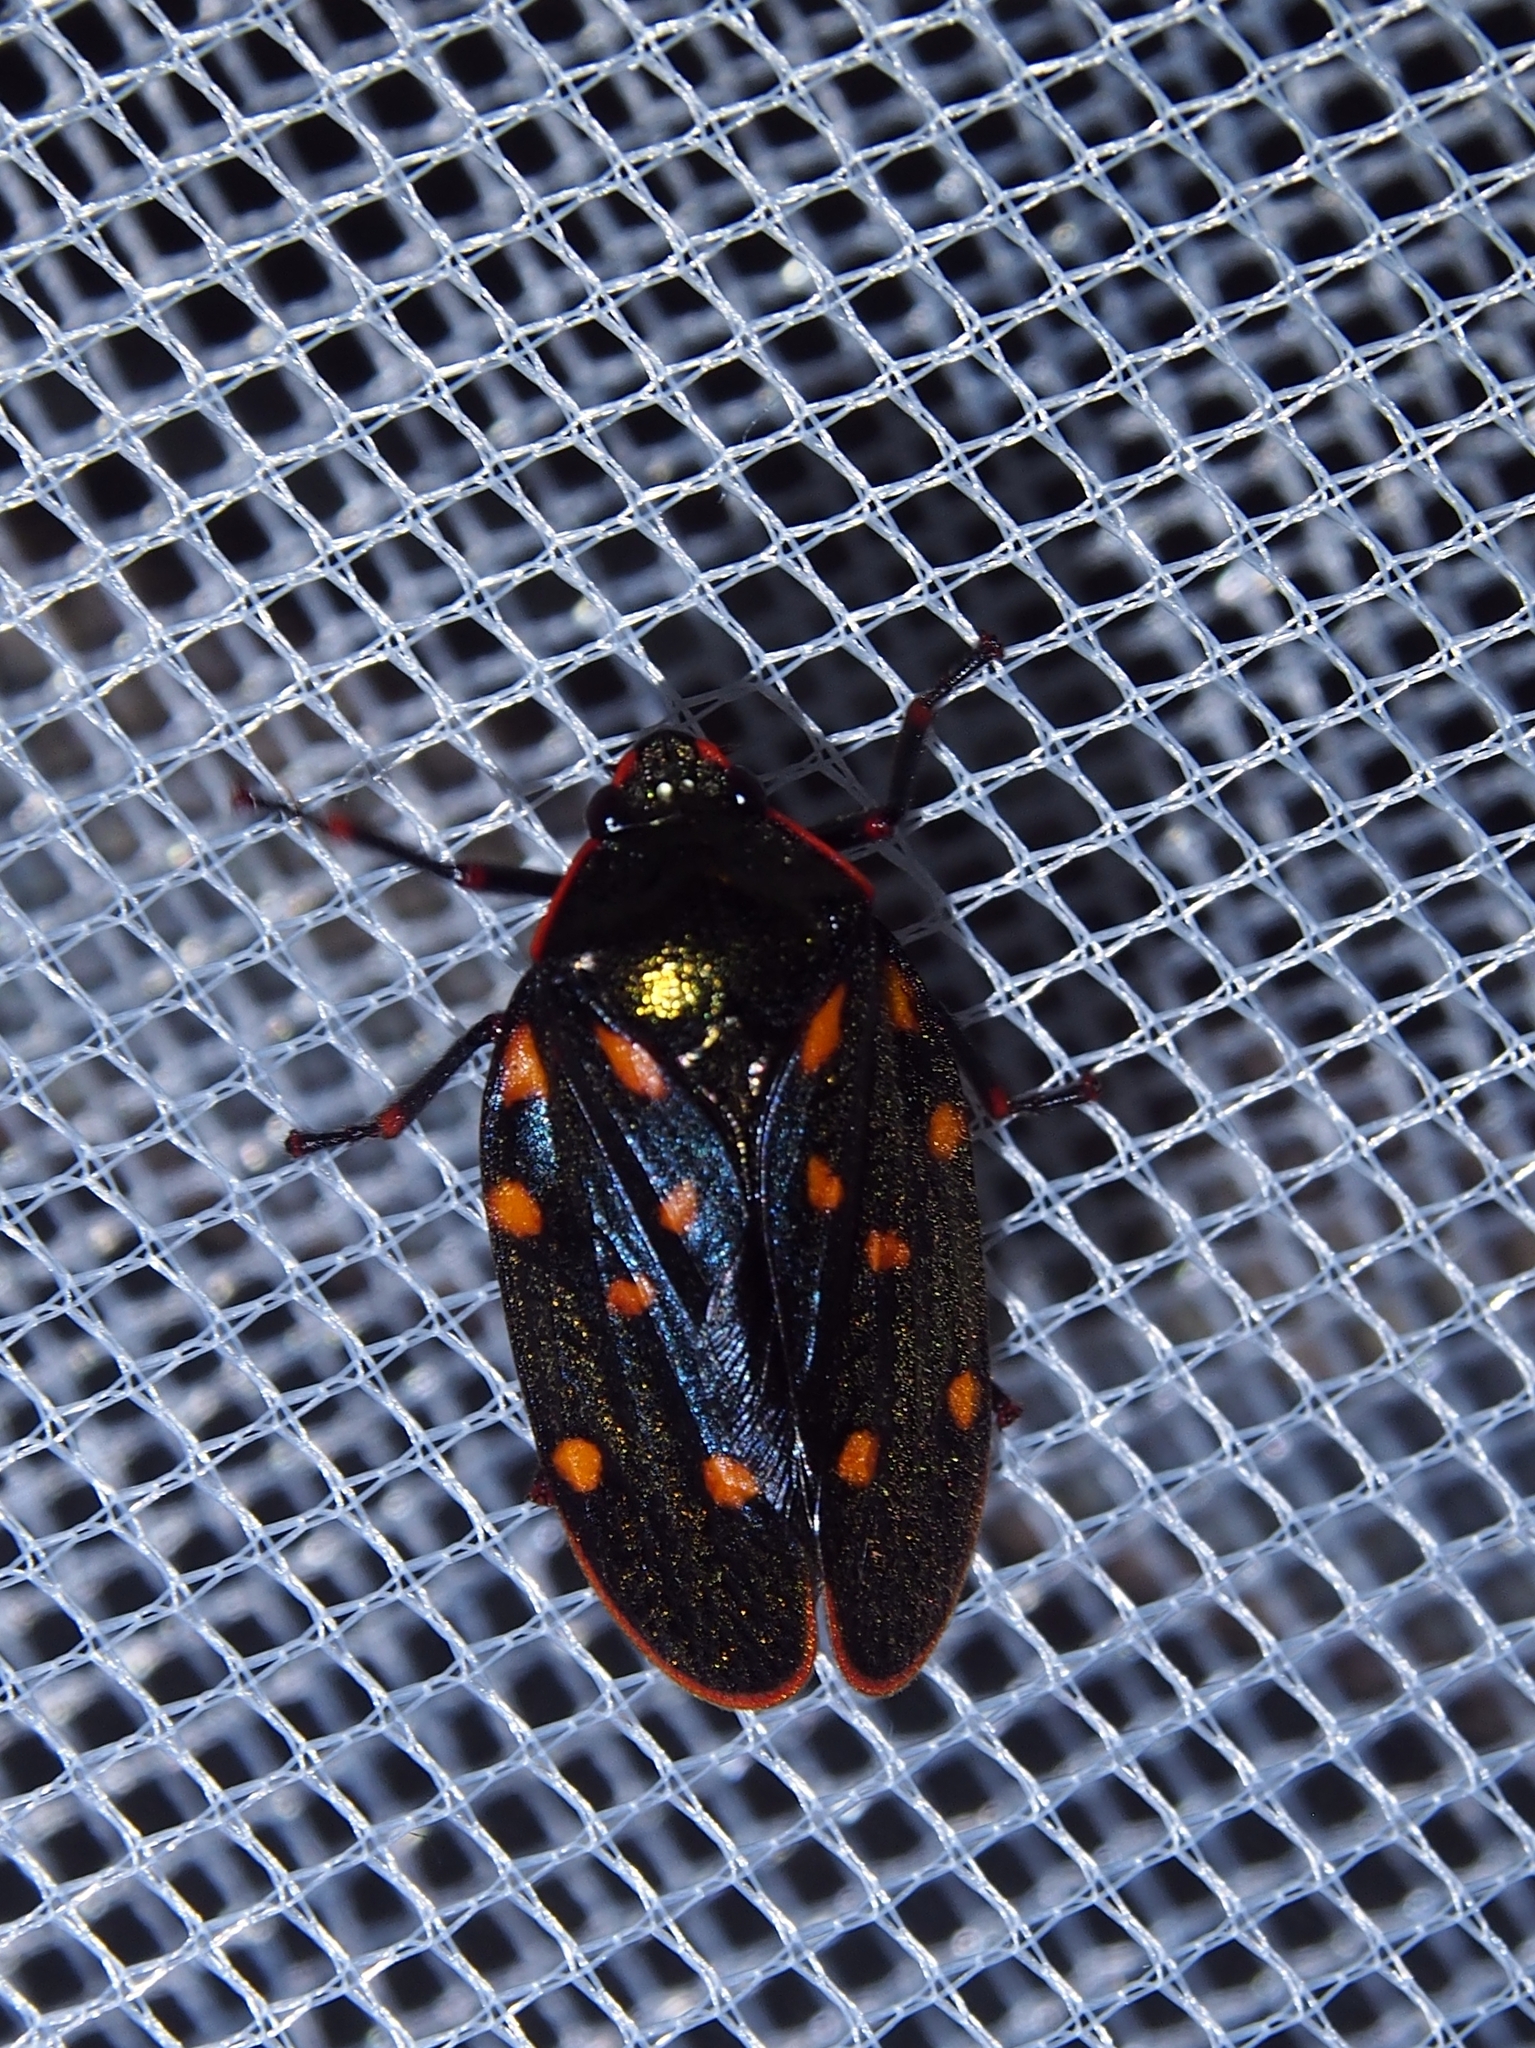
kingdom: Animalia
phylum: Arthropoda
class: Insecta
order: Hemiptera
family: Cercopidae
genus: Mahanarva
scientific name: Mahanarva costaricensis
